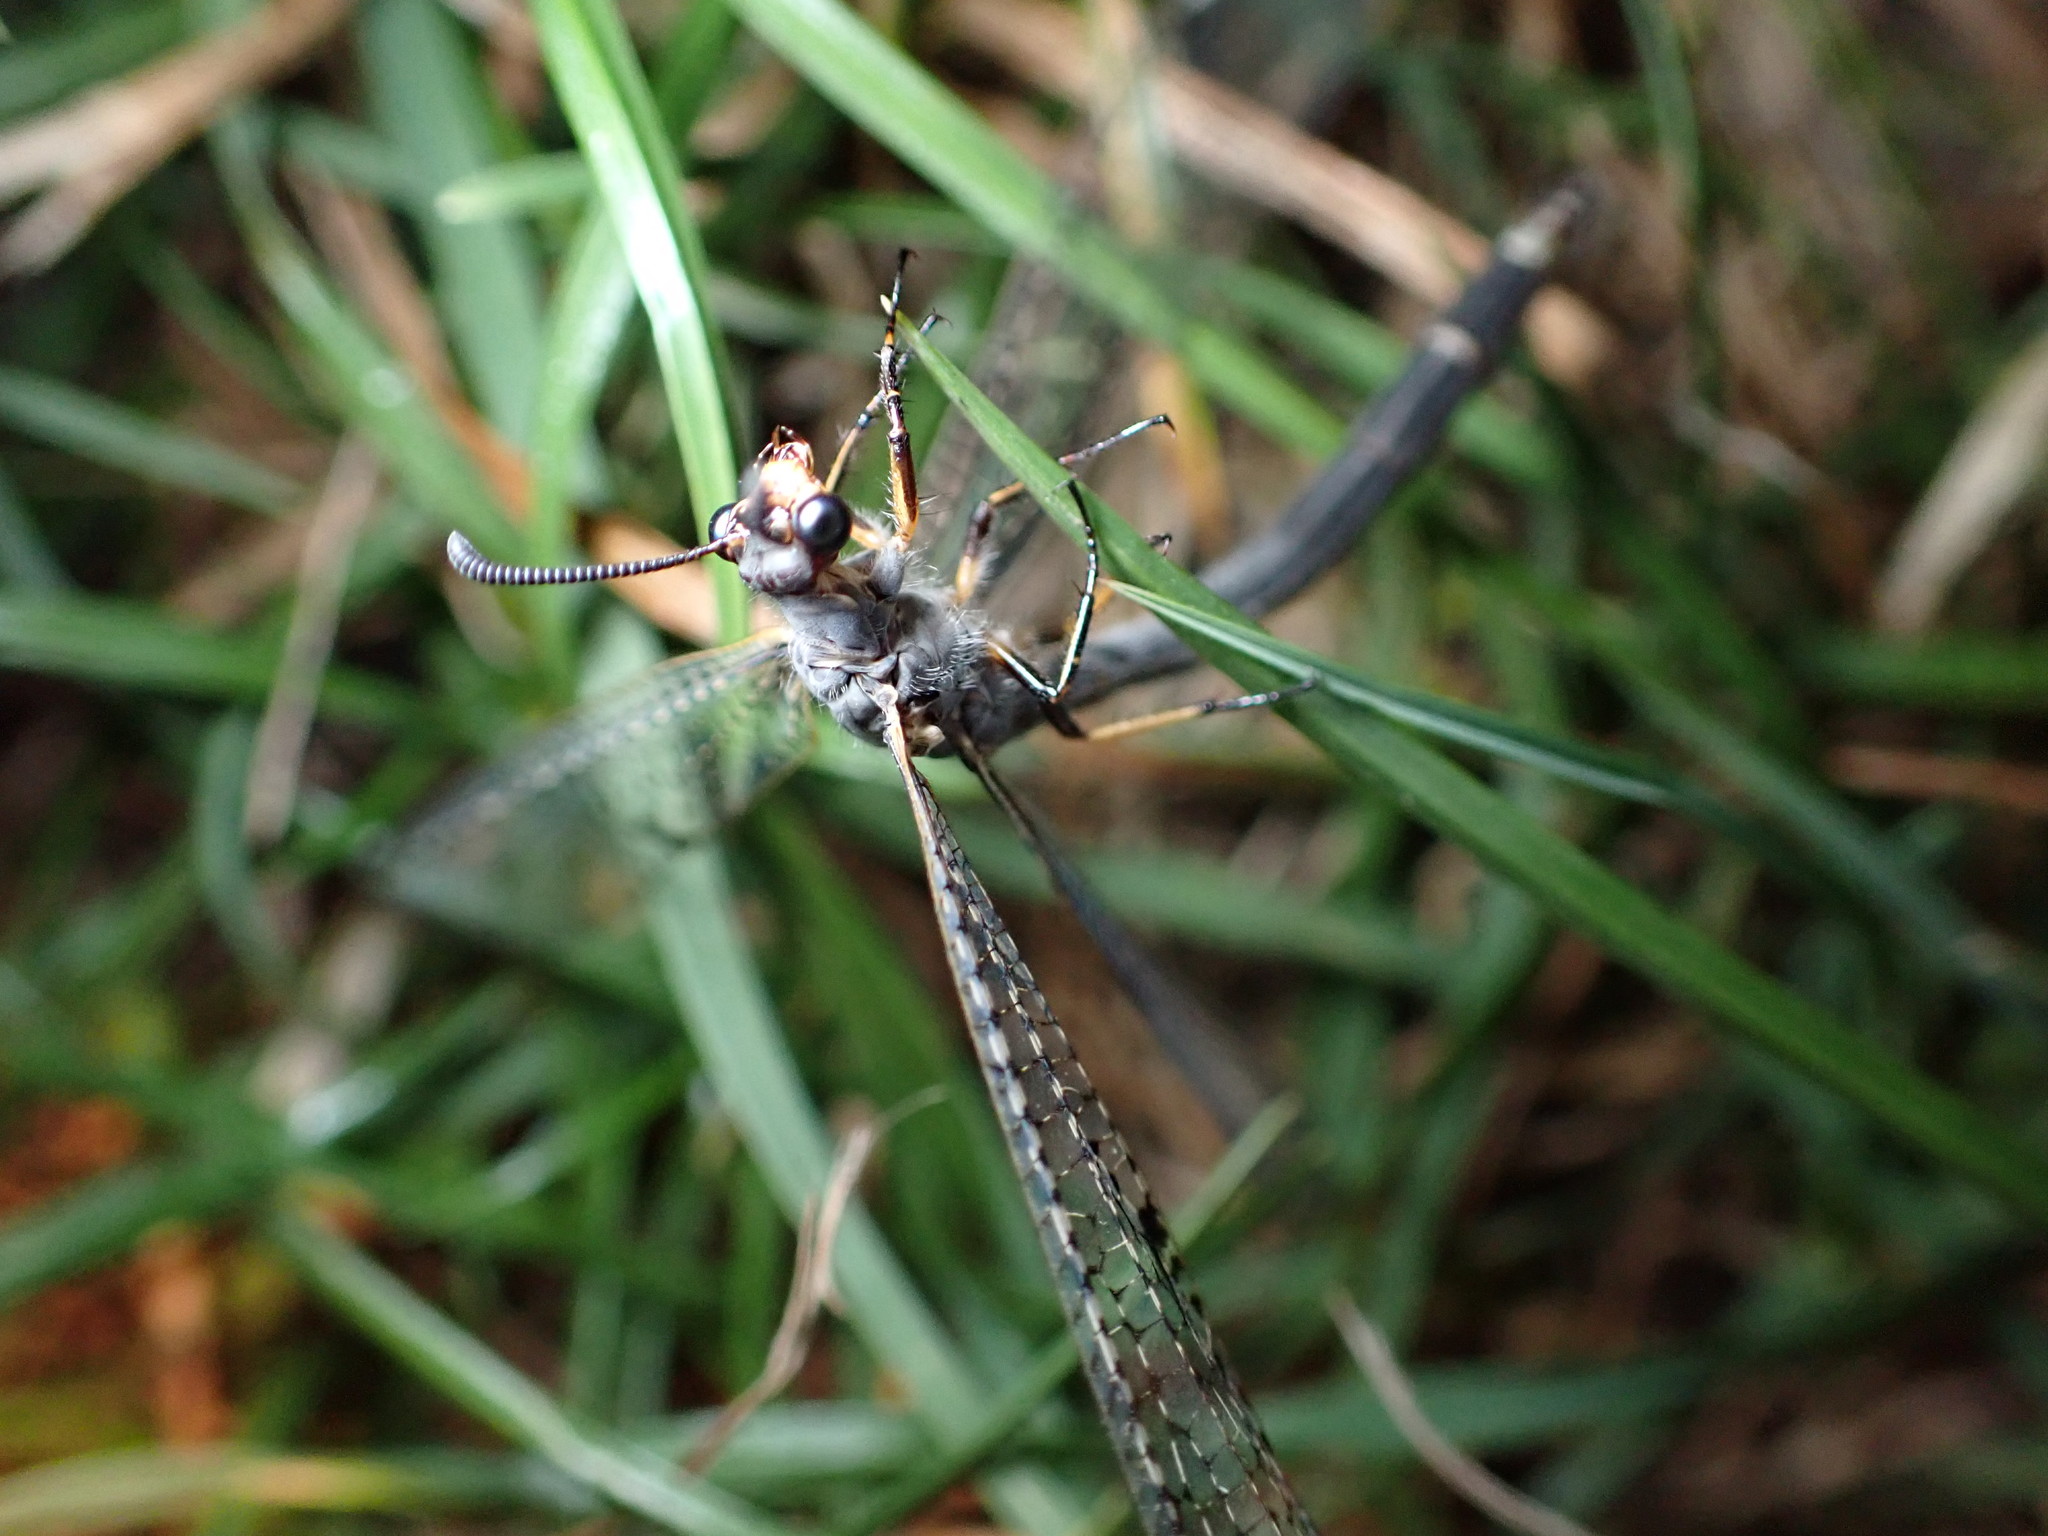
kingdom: Animalia
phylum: Arthropoda
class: Insecta
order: Neuroptera
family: Myrmeleontidae
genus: Weeleus
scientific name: Weeleus acutus
